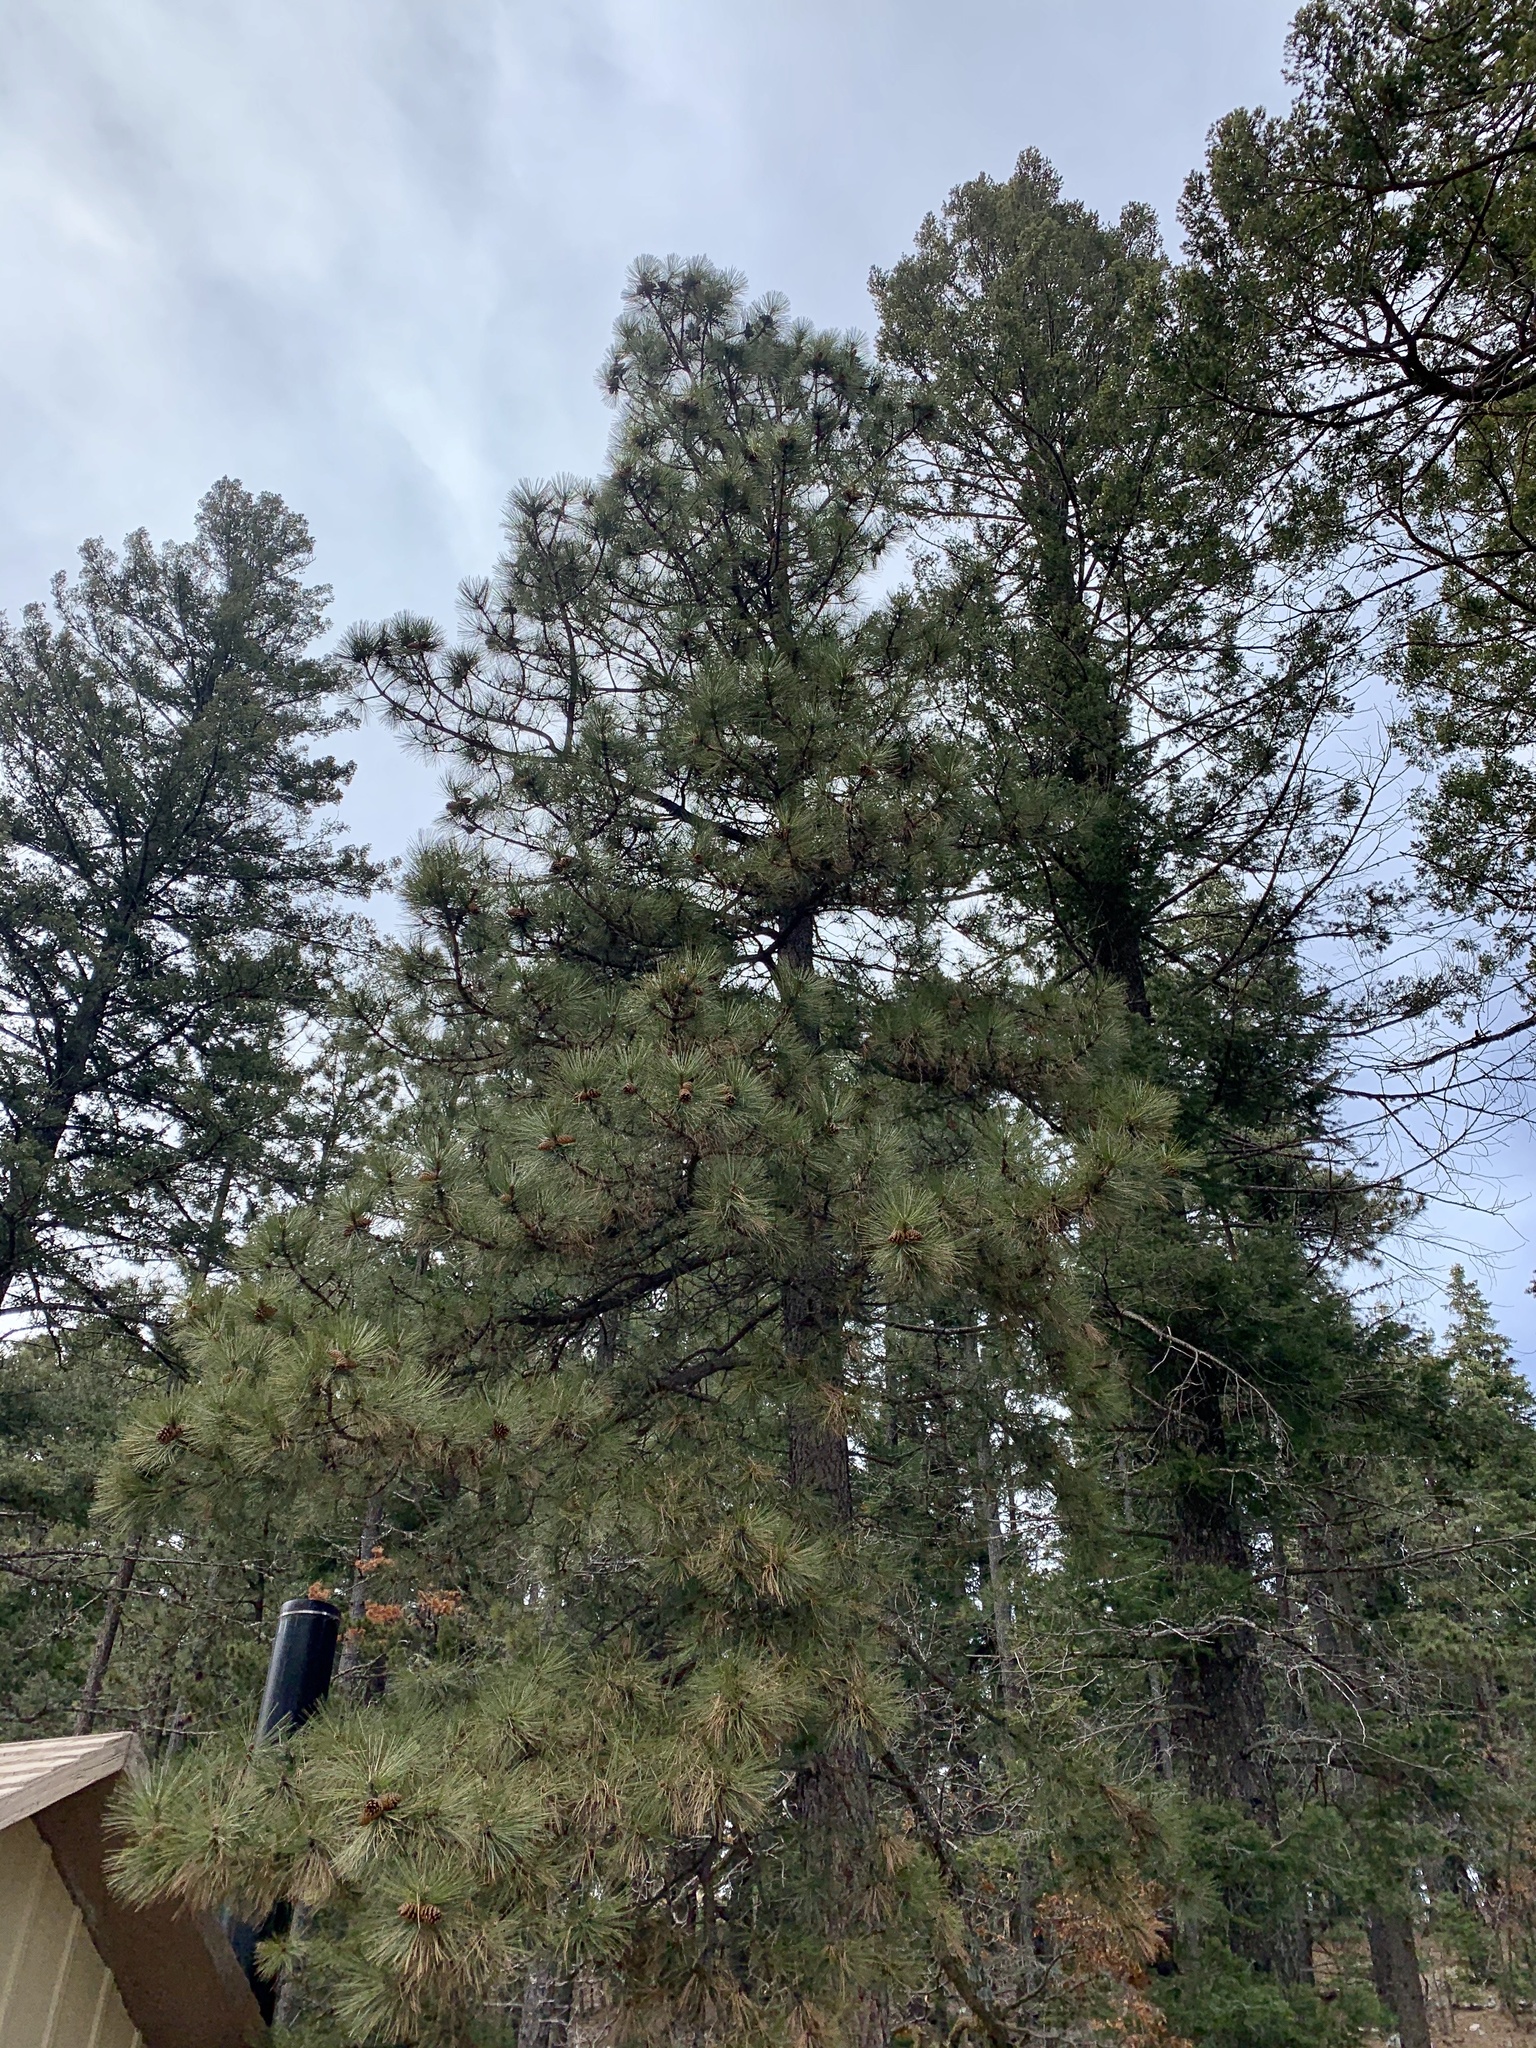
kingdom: Plantae
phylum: Tracheophyta
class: Pinopsida
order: Pinales
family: Pinaceae
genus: Pinus
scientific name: Pinus ponderosa
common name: Western yellow-pine
